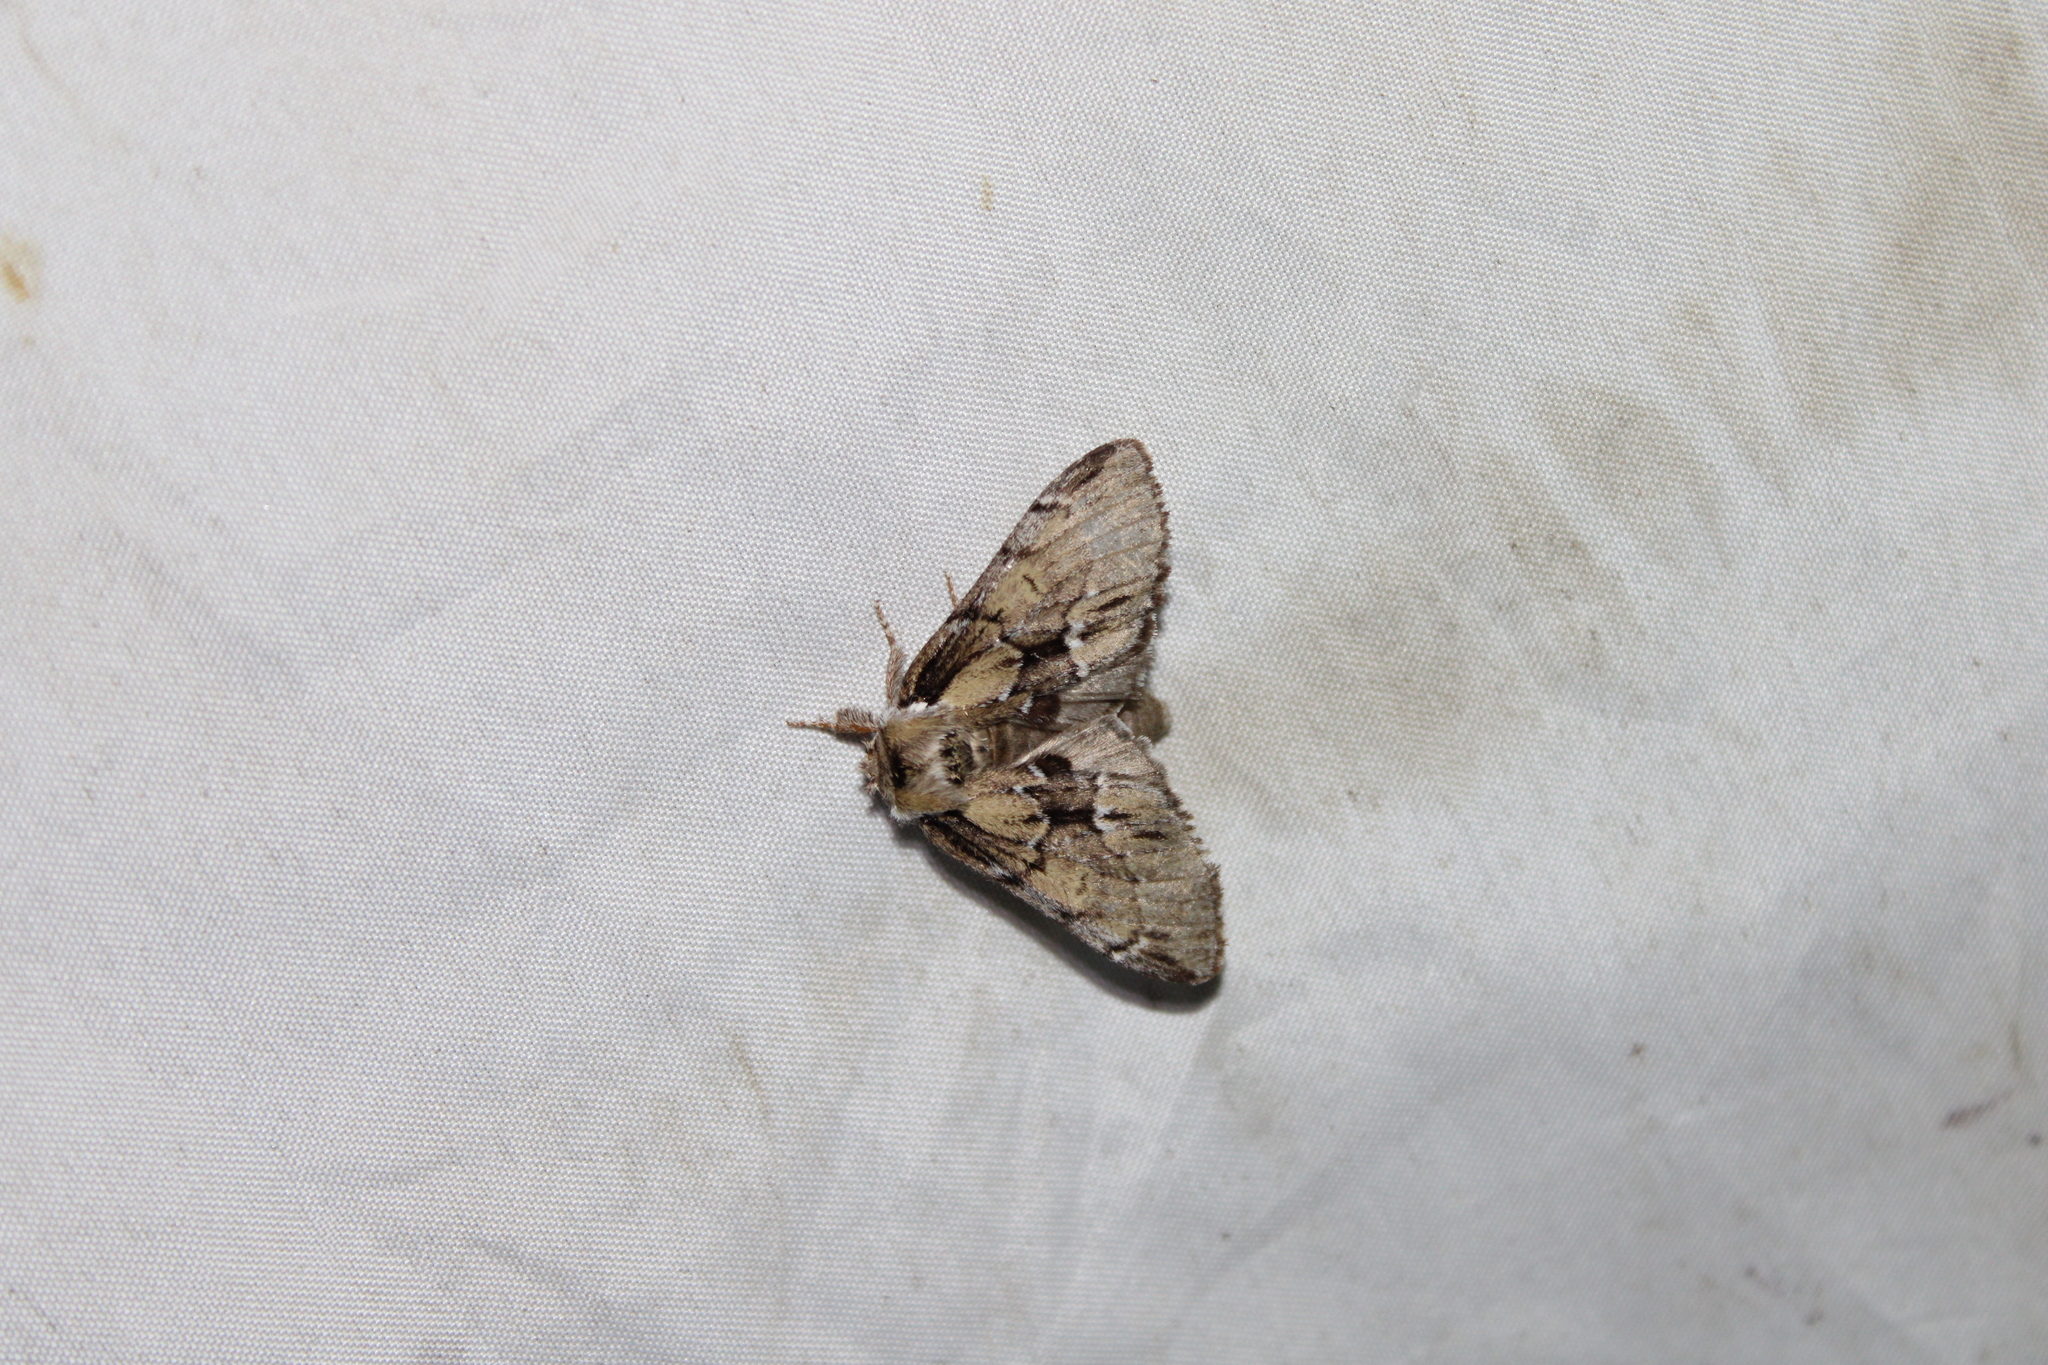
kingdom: Animalia
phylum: Arthropoda
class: Insecta
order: Lepidoptera
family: Notodontidae
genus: Paraeschra
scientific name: Paraeschra georgica
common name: Georgian prominent
